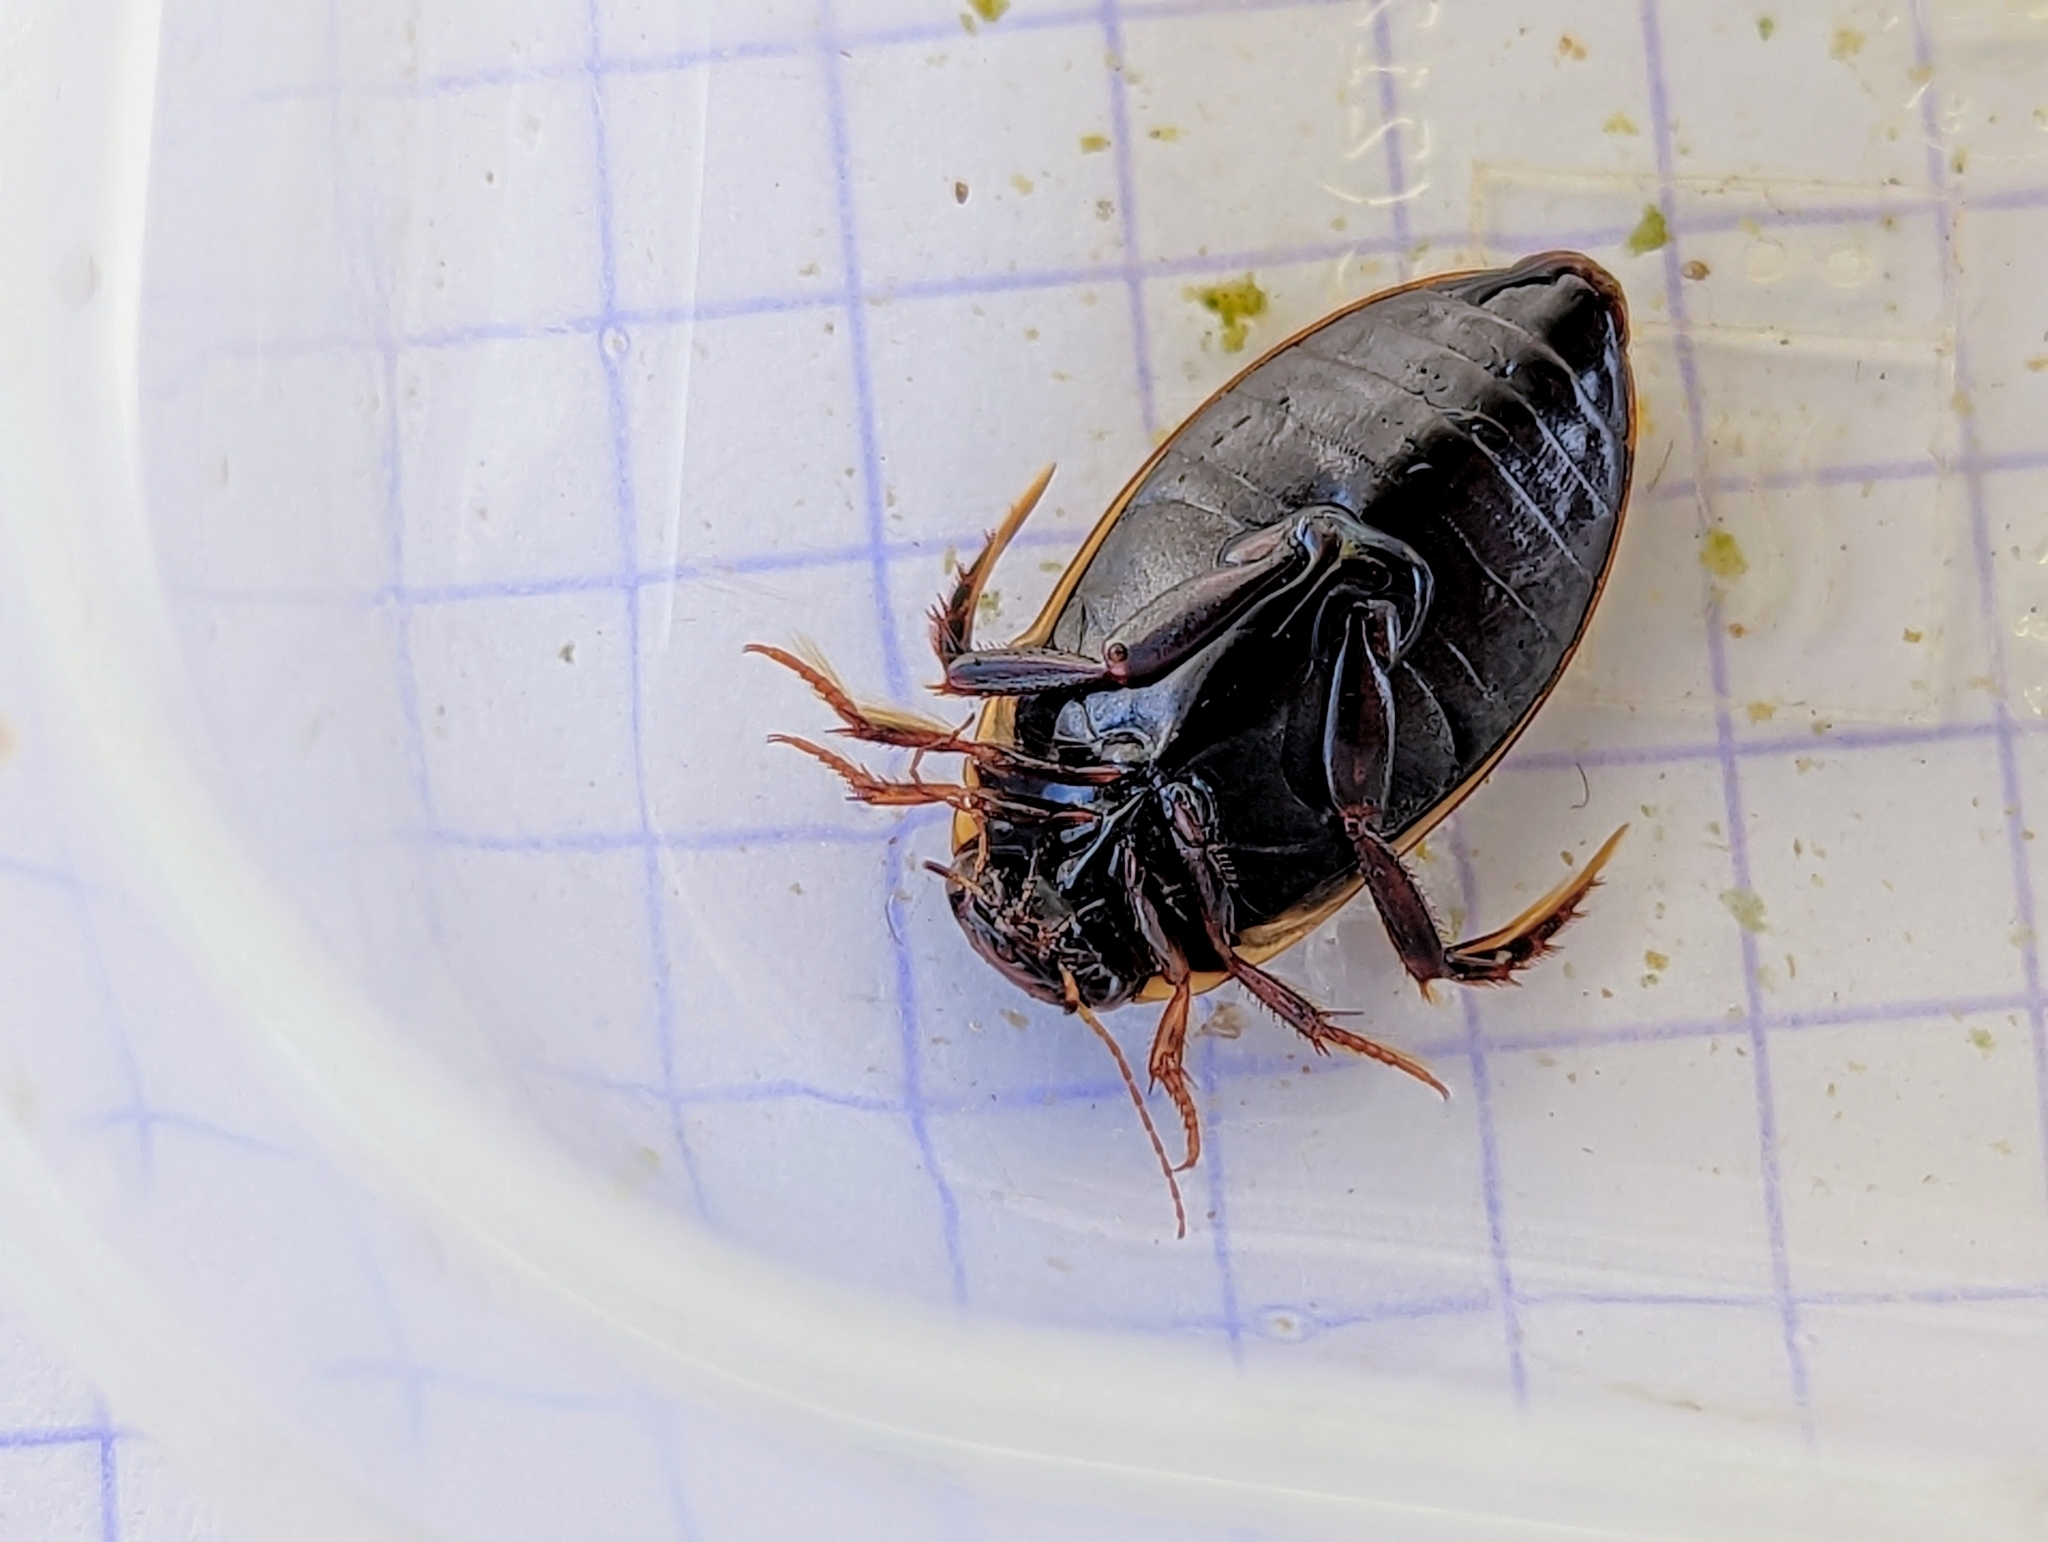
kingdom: Animalia
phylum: Arthropoda
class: Insecta
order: Coleoptera
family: Dytiscidae
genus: Colymbetes
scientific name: Colymbetes fuscus
